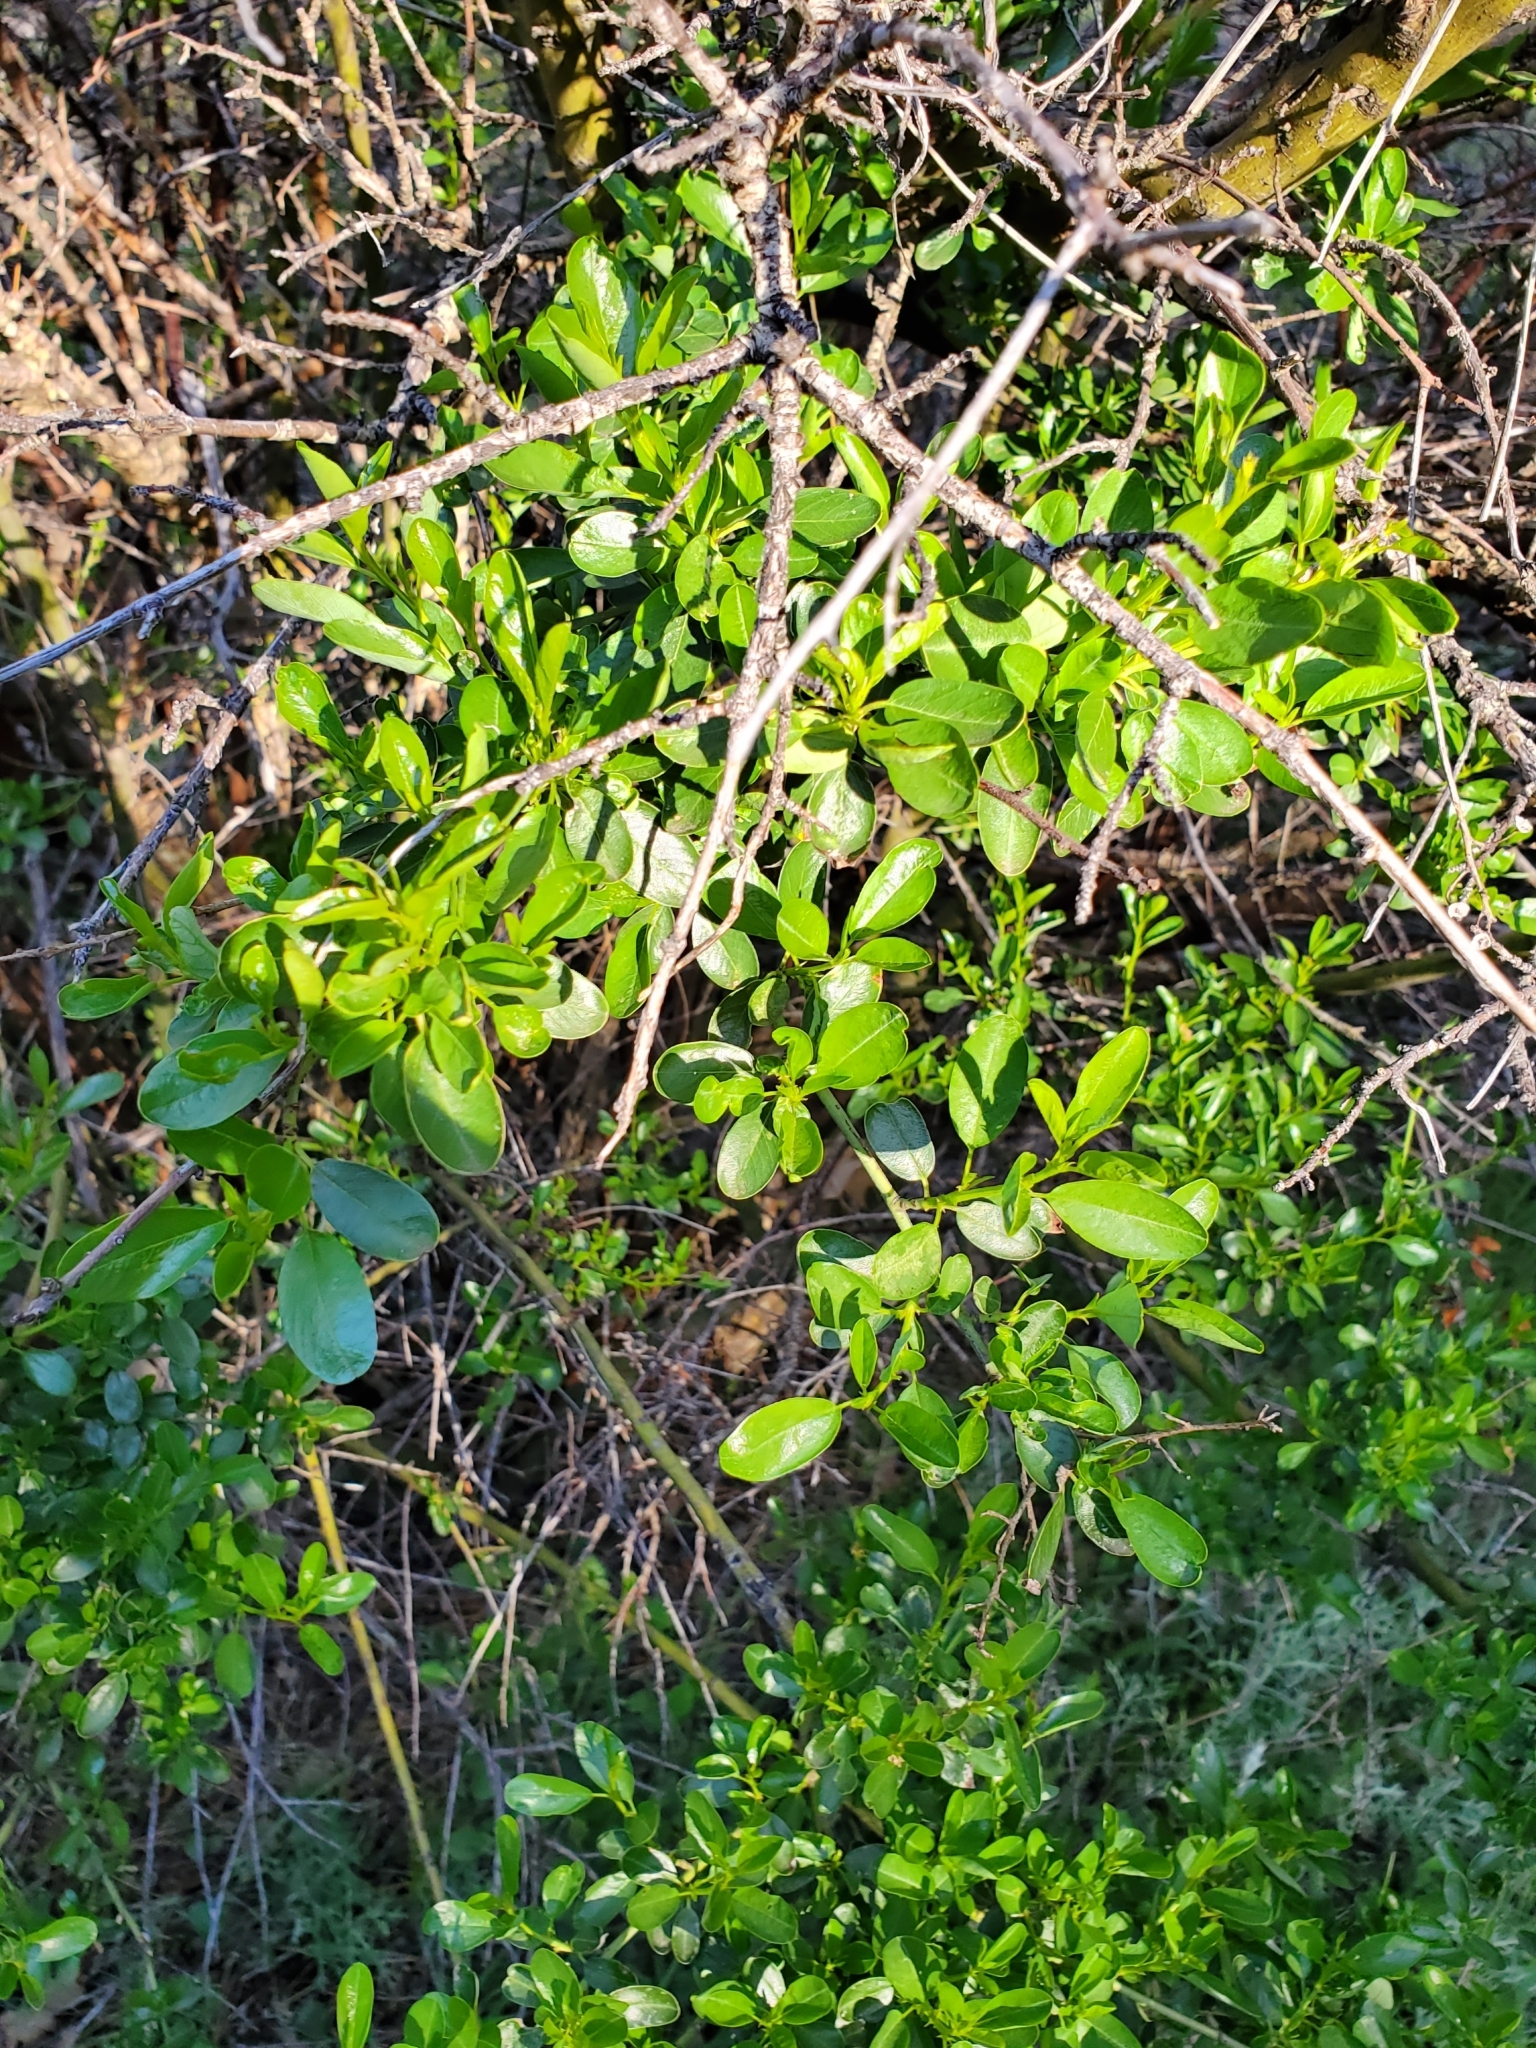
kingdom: Plantae
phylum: Tracheophyta
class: Magnoliopsida
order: Rosales
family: Rhamnaceae
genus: Ceanothus
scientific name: Ceanothus palmeri
